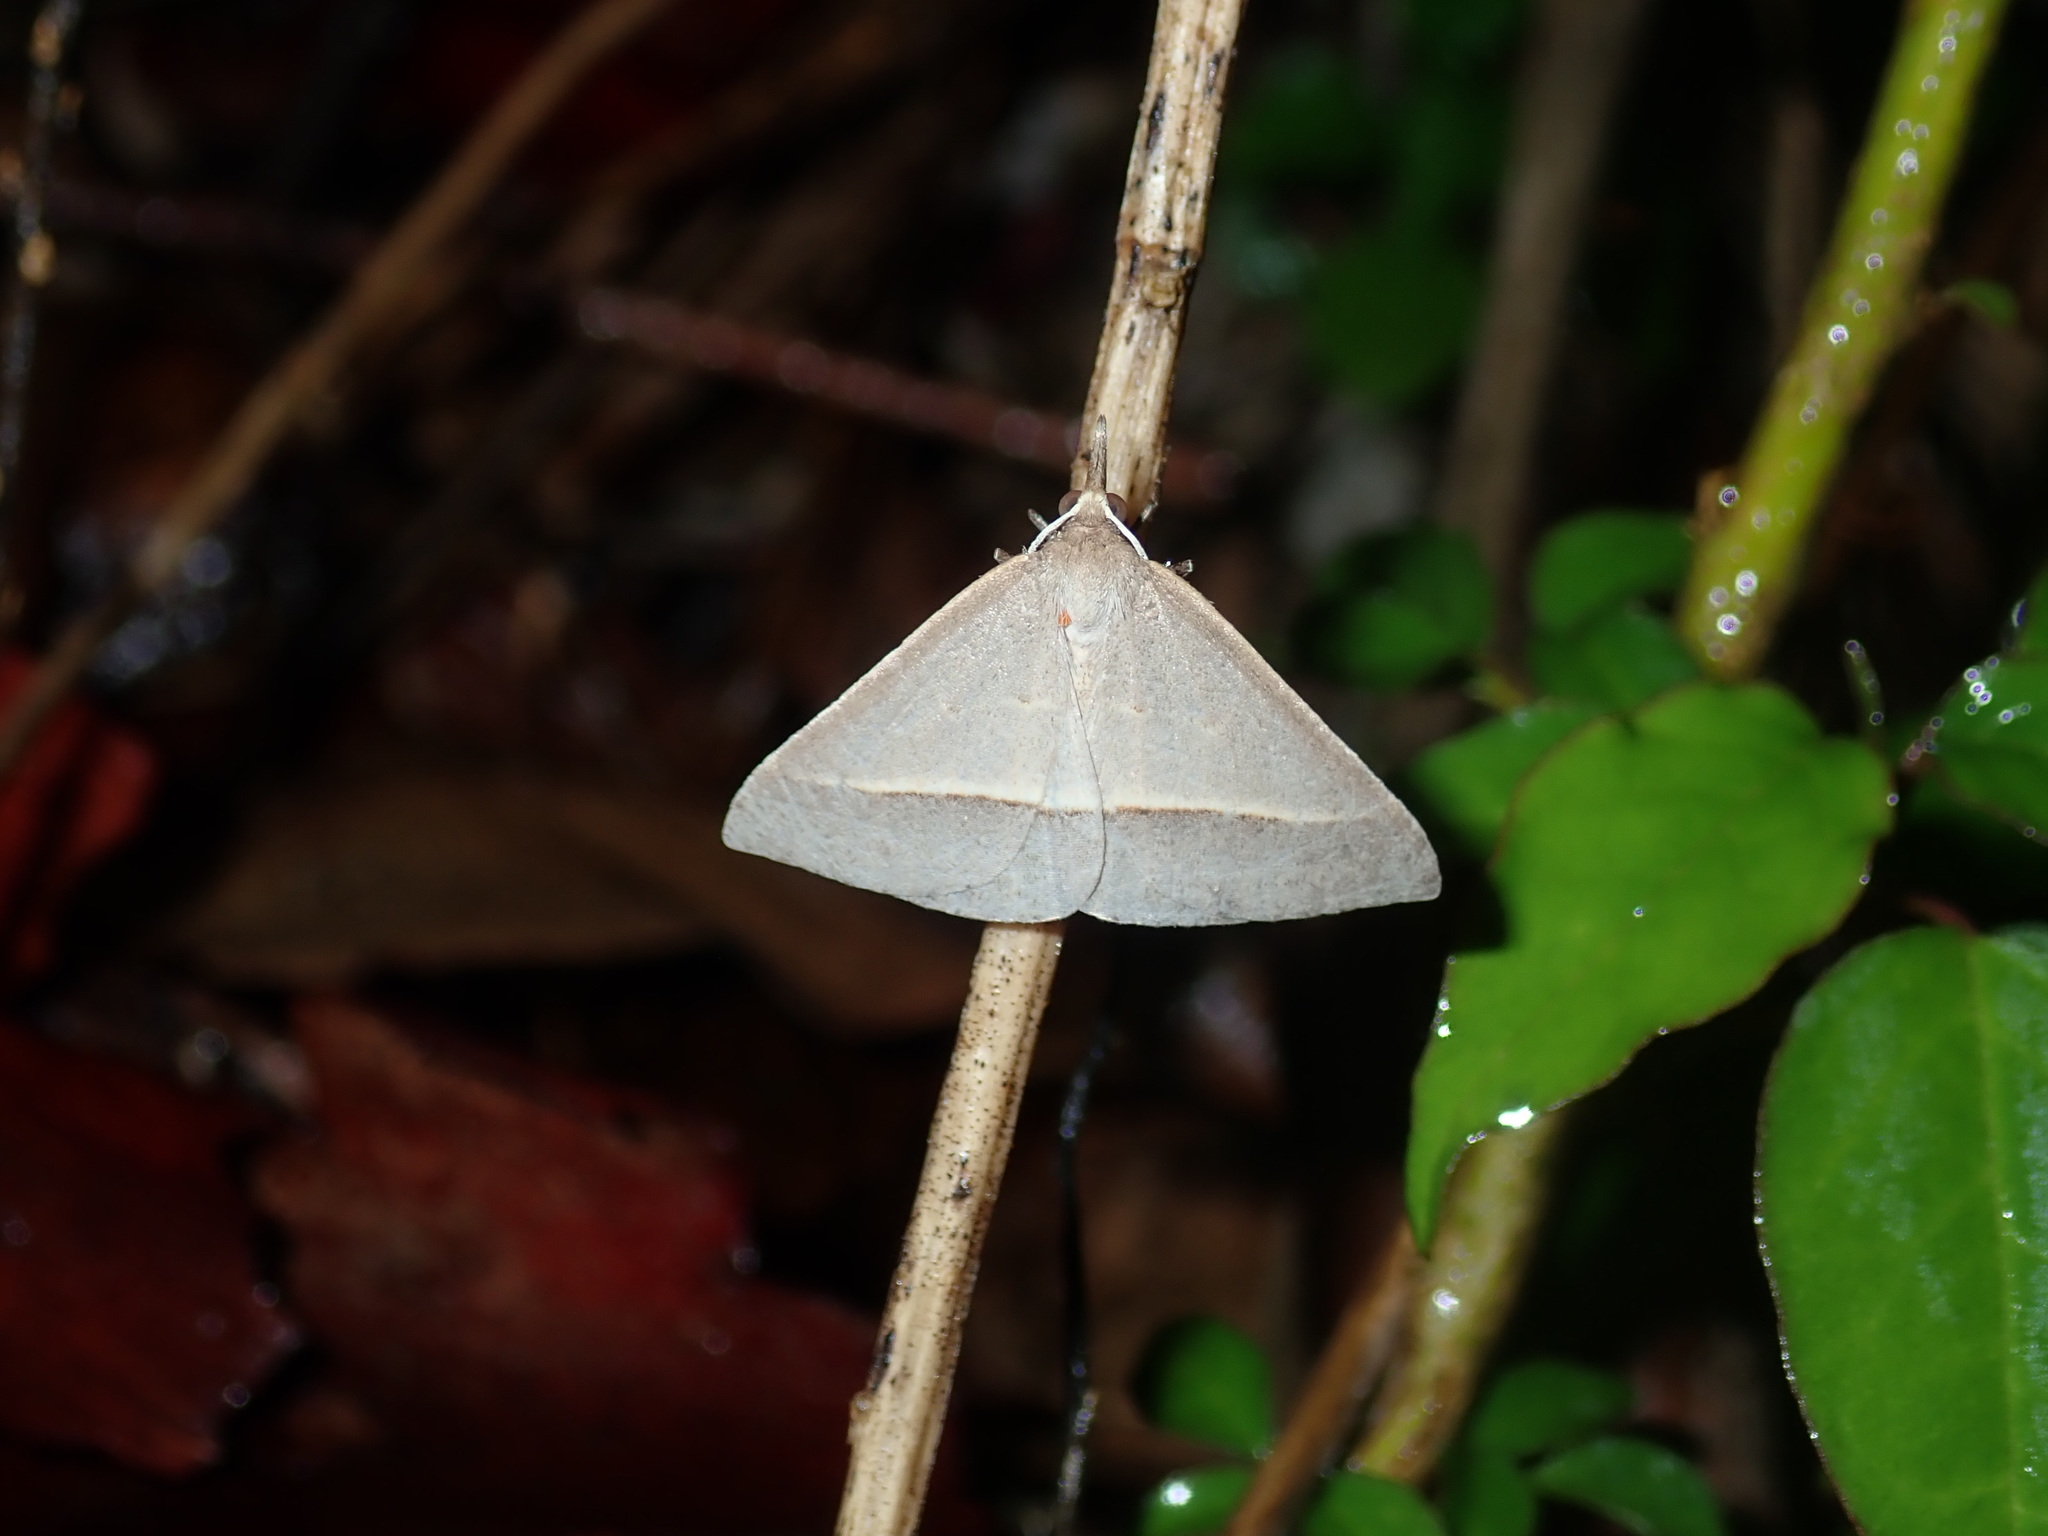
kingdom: Animalia
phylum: Arthropoda
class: Insecta
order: Lepidoptera
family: Geometridae
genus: Epidesmia
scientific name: Epidesmia perfabricata
